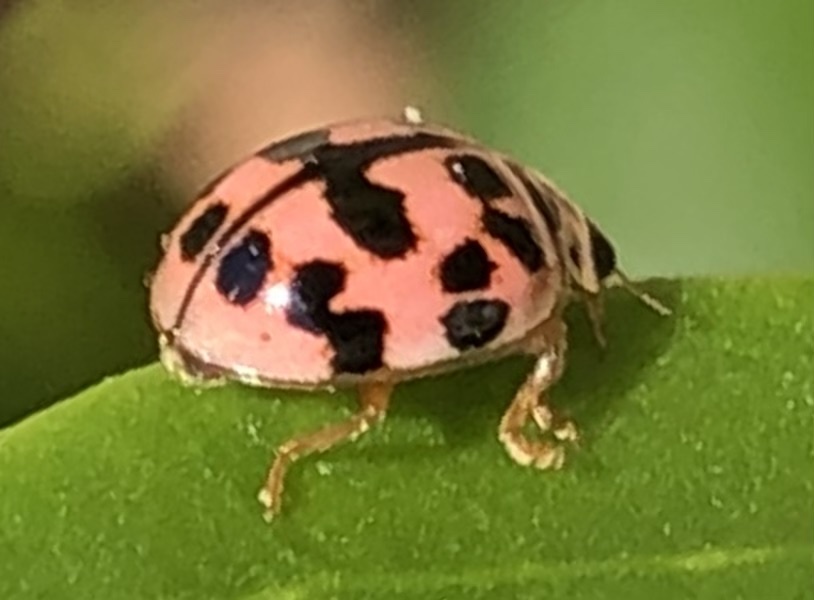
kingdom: Animalia
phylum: Arthropoda
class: Insecta
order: Coleoptera
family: Coccinellidae
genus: Oenopia
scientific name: Oenopia conglobata
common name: Ladybird beetle
